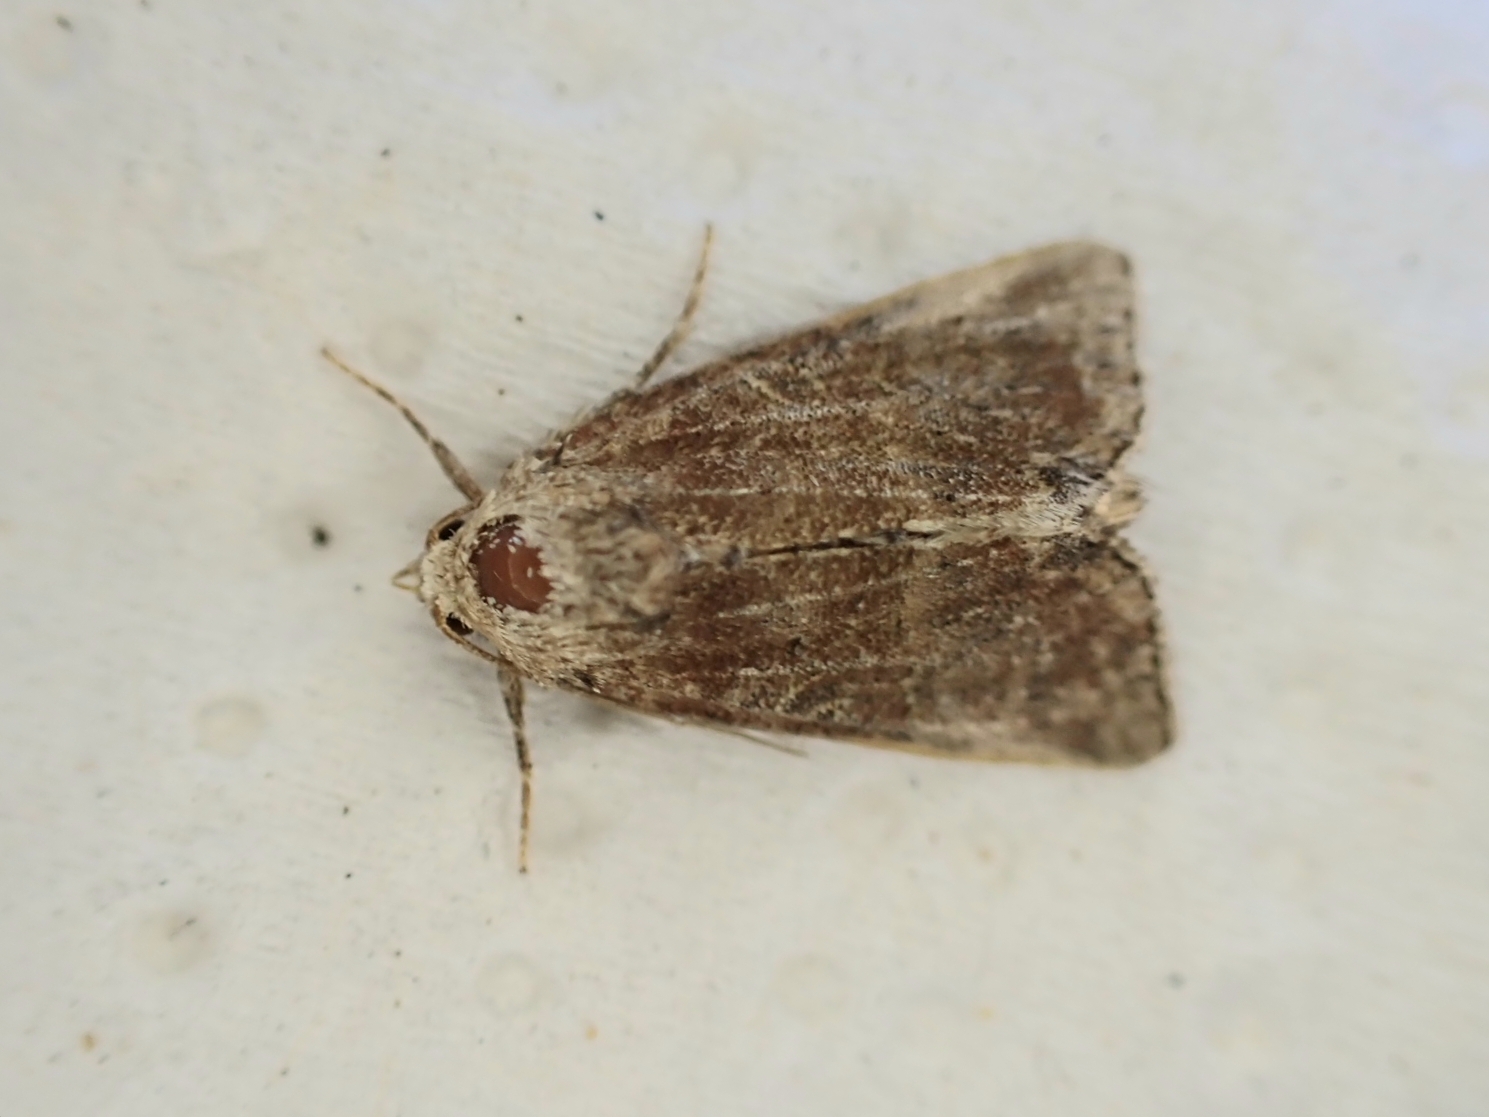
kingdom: Animalia
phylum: Arthropoda
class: Insecta
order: Lepidoptera
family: Noctuidae
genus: Mesoligia
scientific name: Mesoligia furuncula
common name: Cloaked minor
